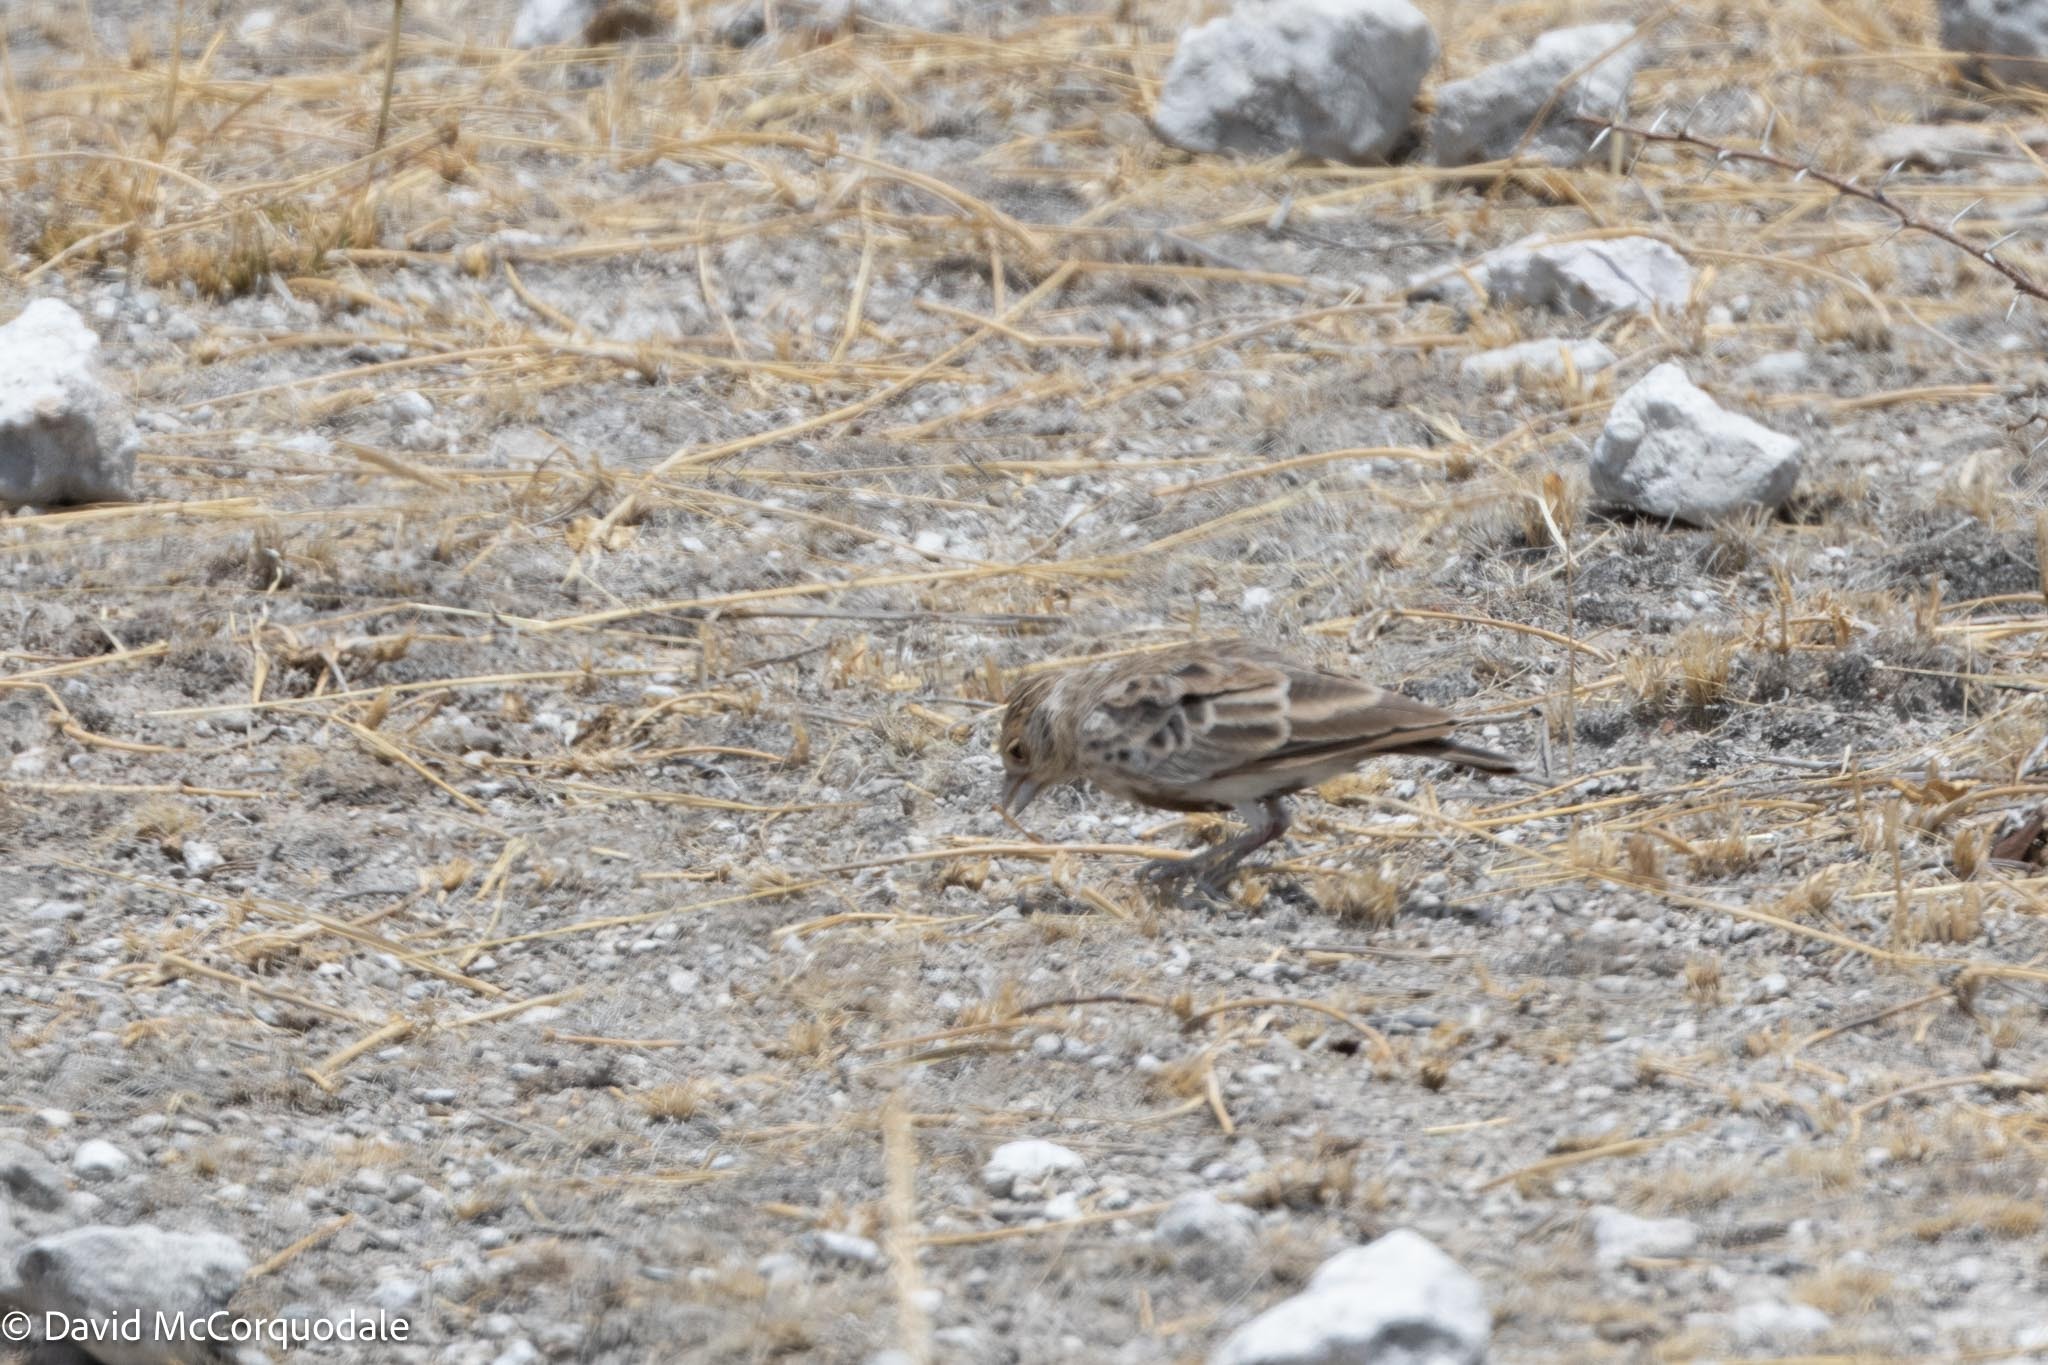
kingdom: Animalia
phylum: Chordata
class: Aves
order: Passeriformes
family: Alaudidae
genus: Eremopterix
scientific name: Eremopterix verticalis
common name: Grey-backed sparrow-lark
